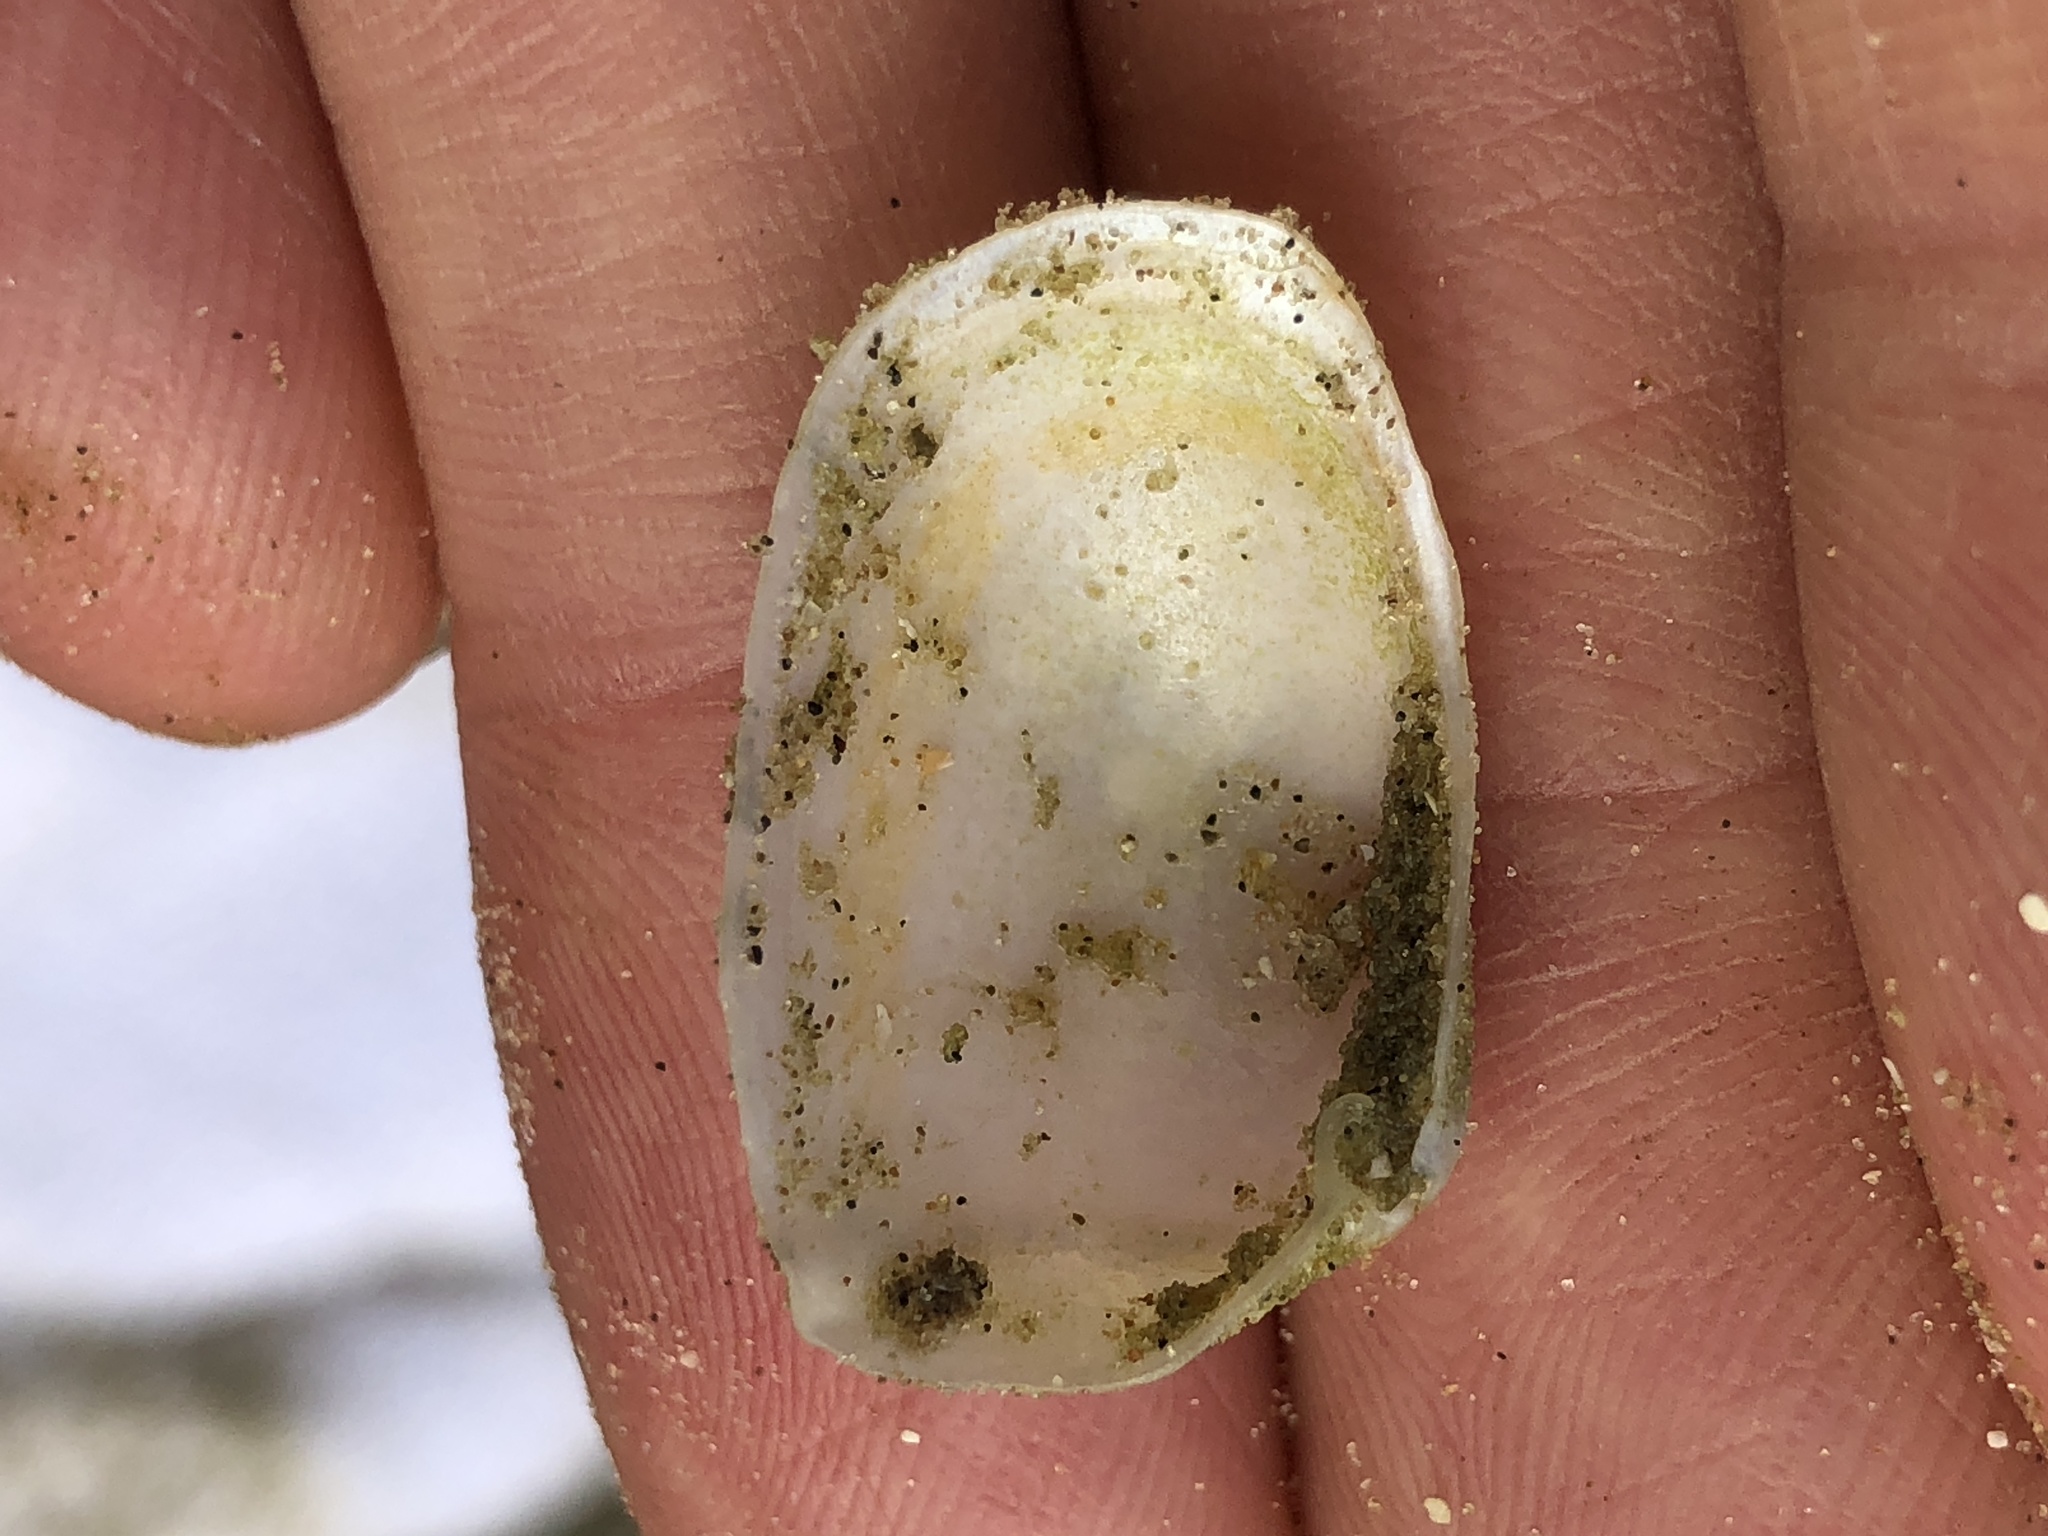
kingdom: Animalia
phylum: Mollusca
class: Bivalvia
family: Periplomatidae
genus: Periploma
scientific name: Periploma inequale
